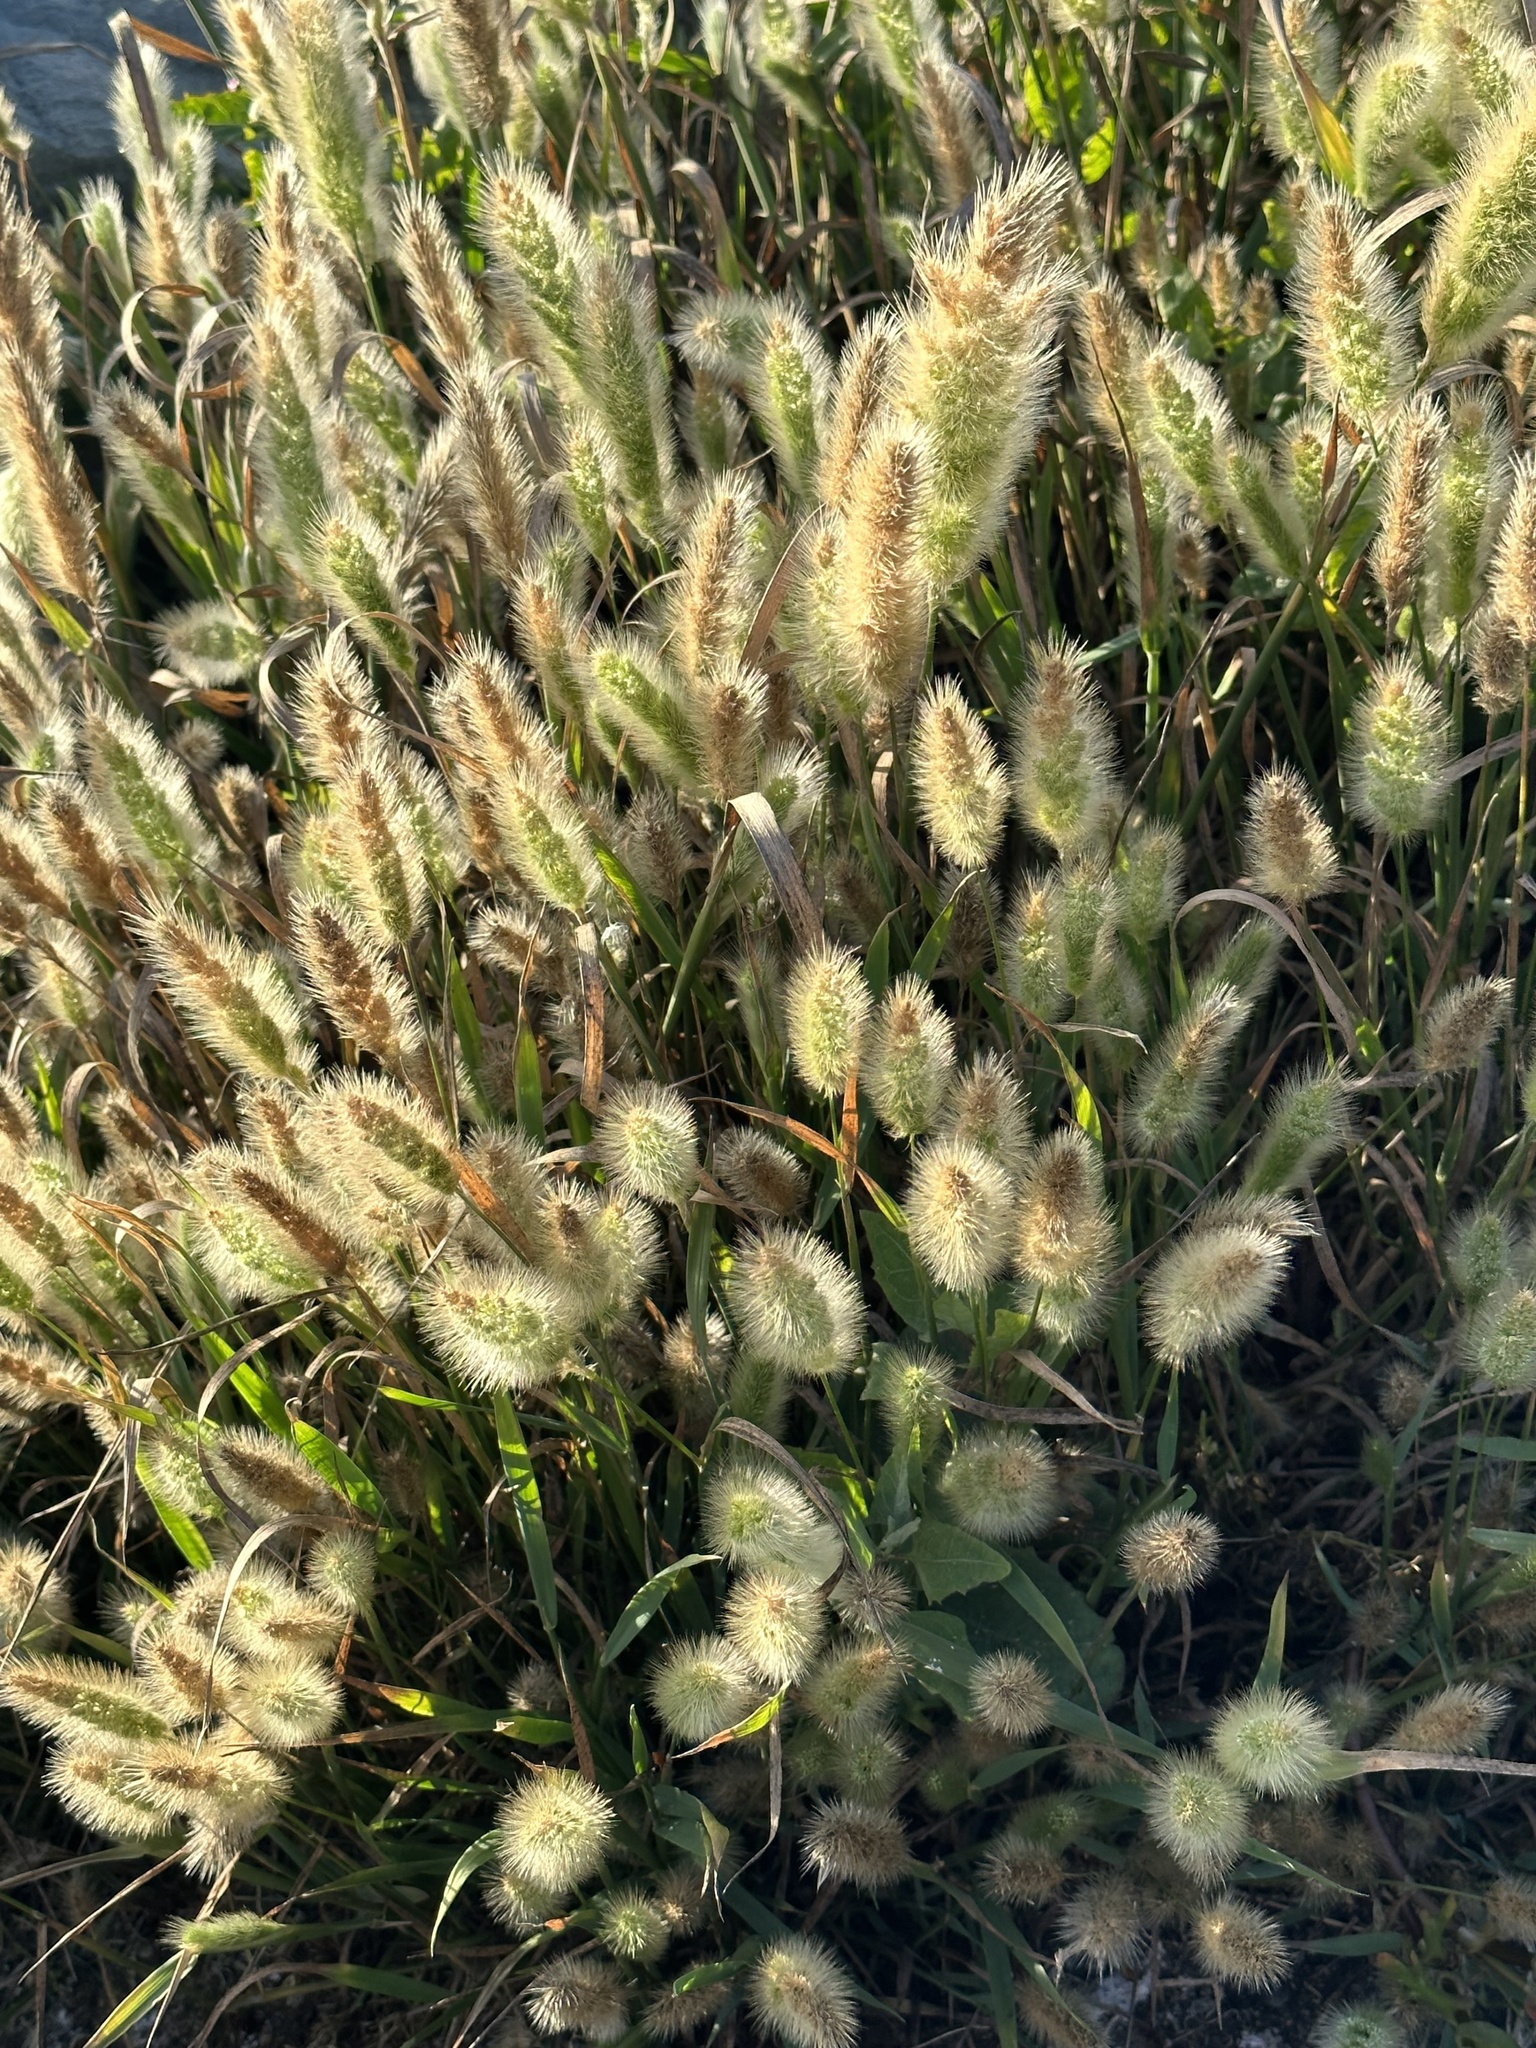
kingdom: Plantae
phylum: Tracheophyta
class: Liliopsida
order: Poales
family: Poaceae
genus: Polypogon
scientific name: Polypogon monspeliensis
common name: Annual rabbitsfoot grass
